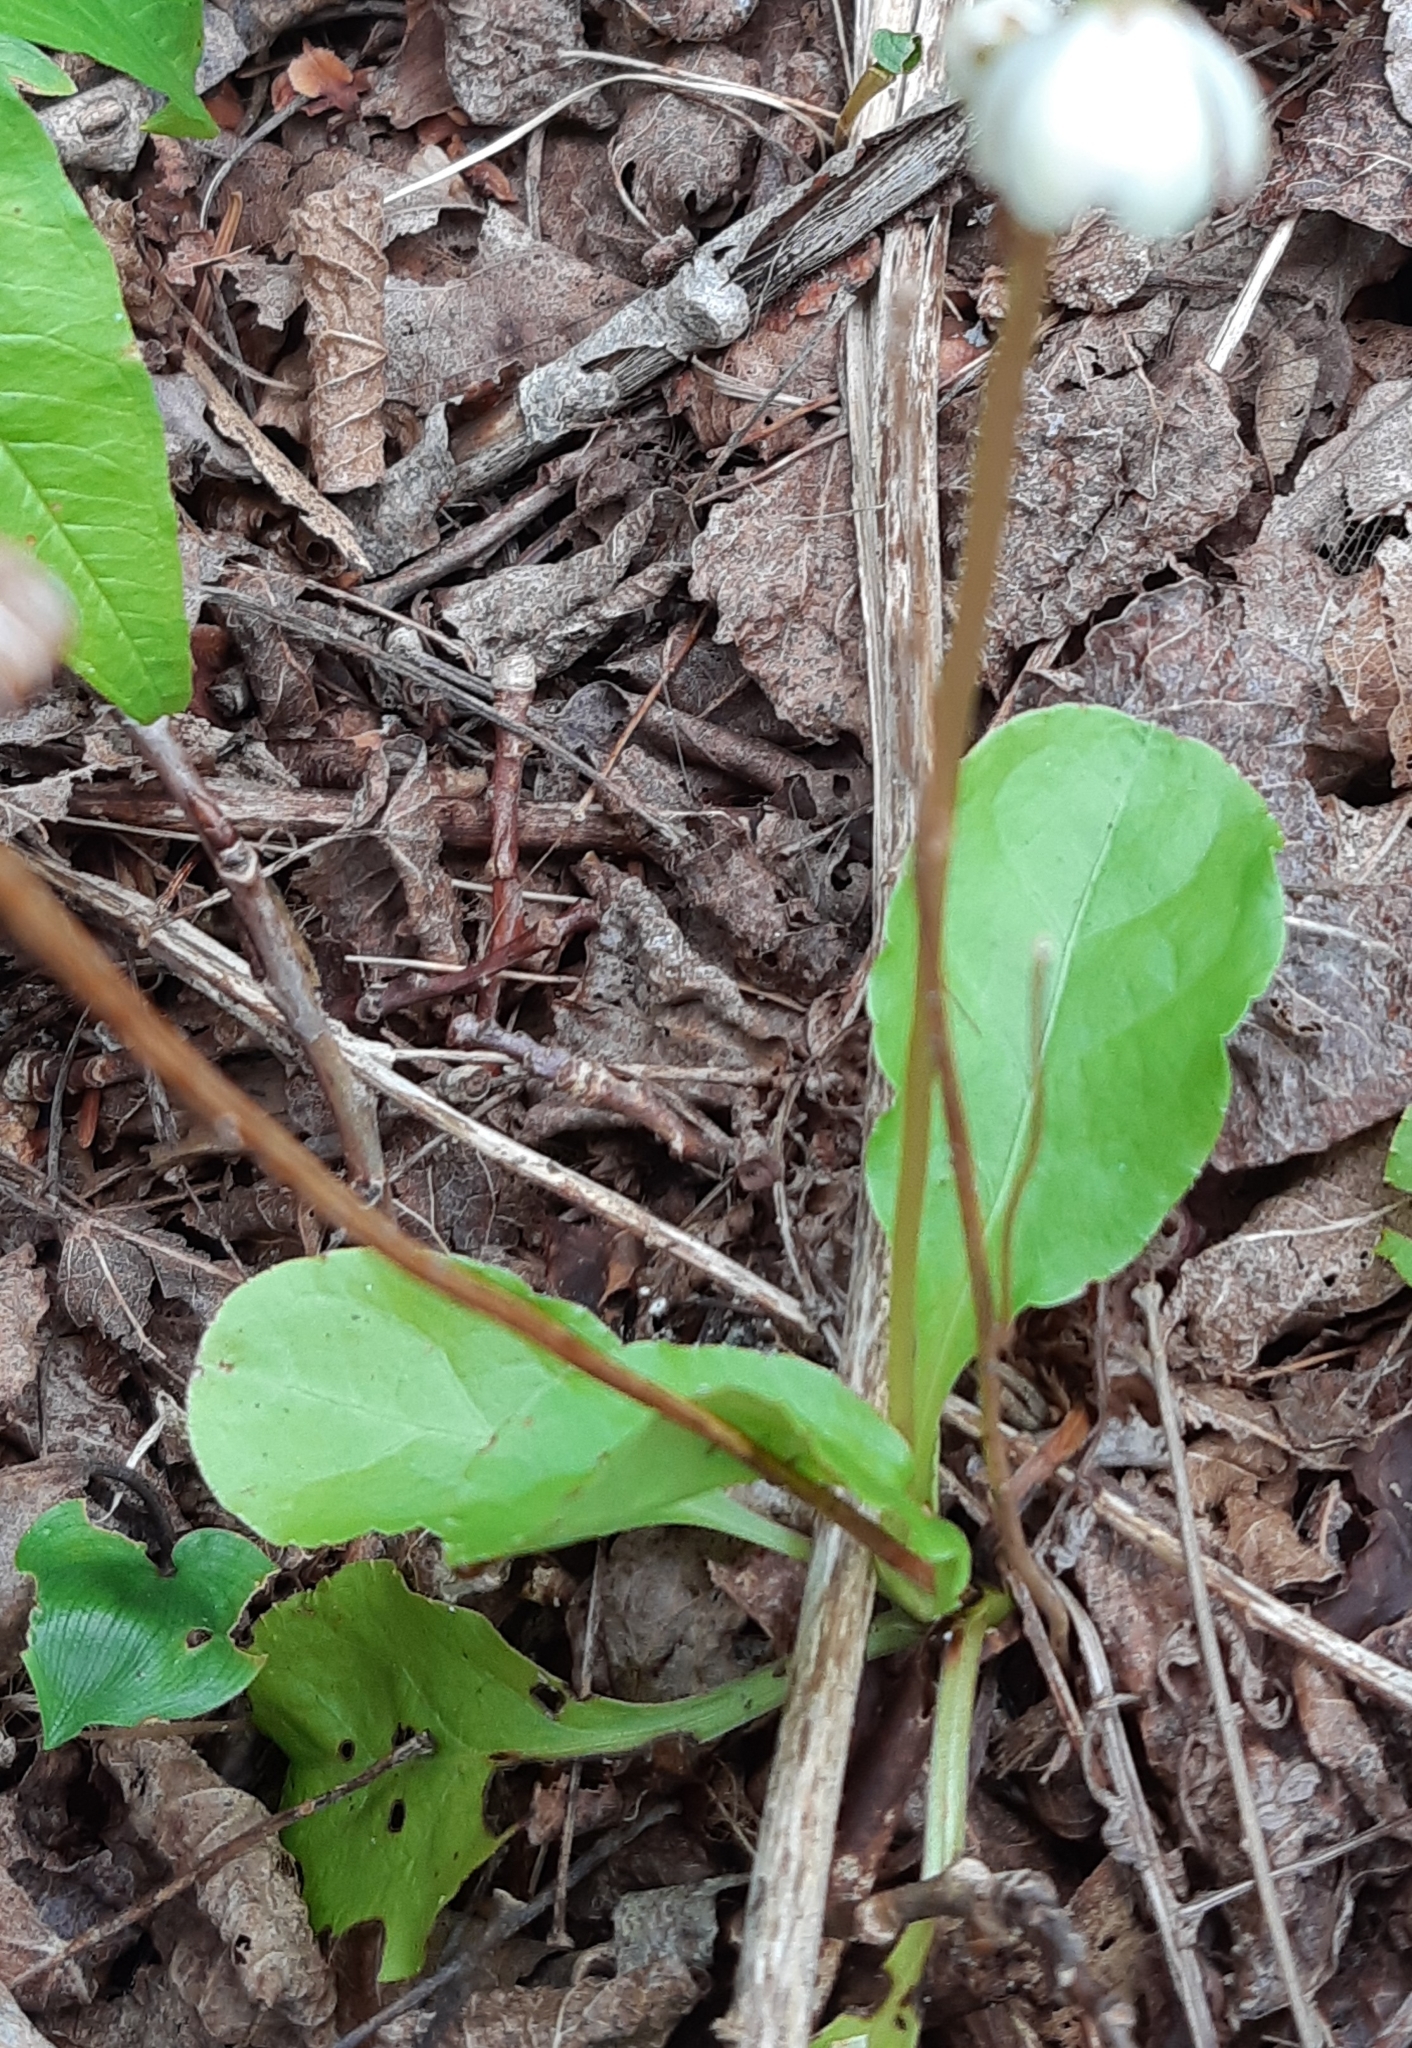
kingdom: Plantae
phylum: Tracheophyta
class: Magnoliopsida
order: Ericales
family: Ericaceae
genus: Pyrola
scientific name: Pyrola elliptica
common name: Shinleaf
